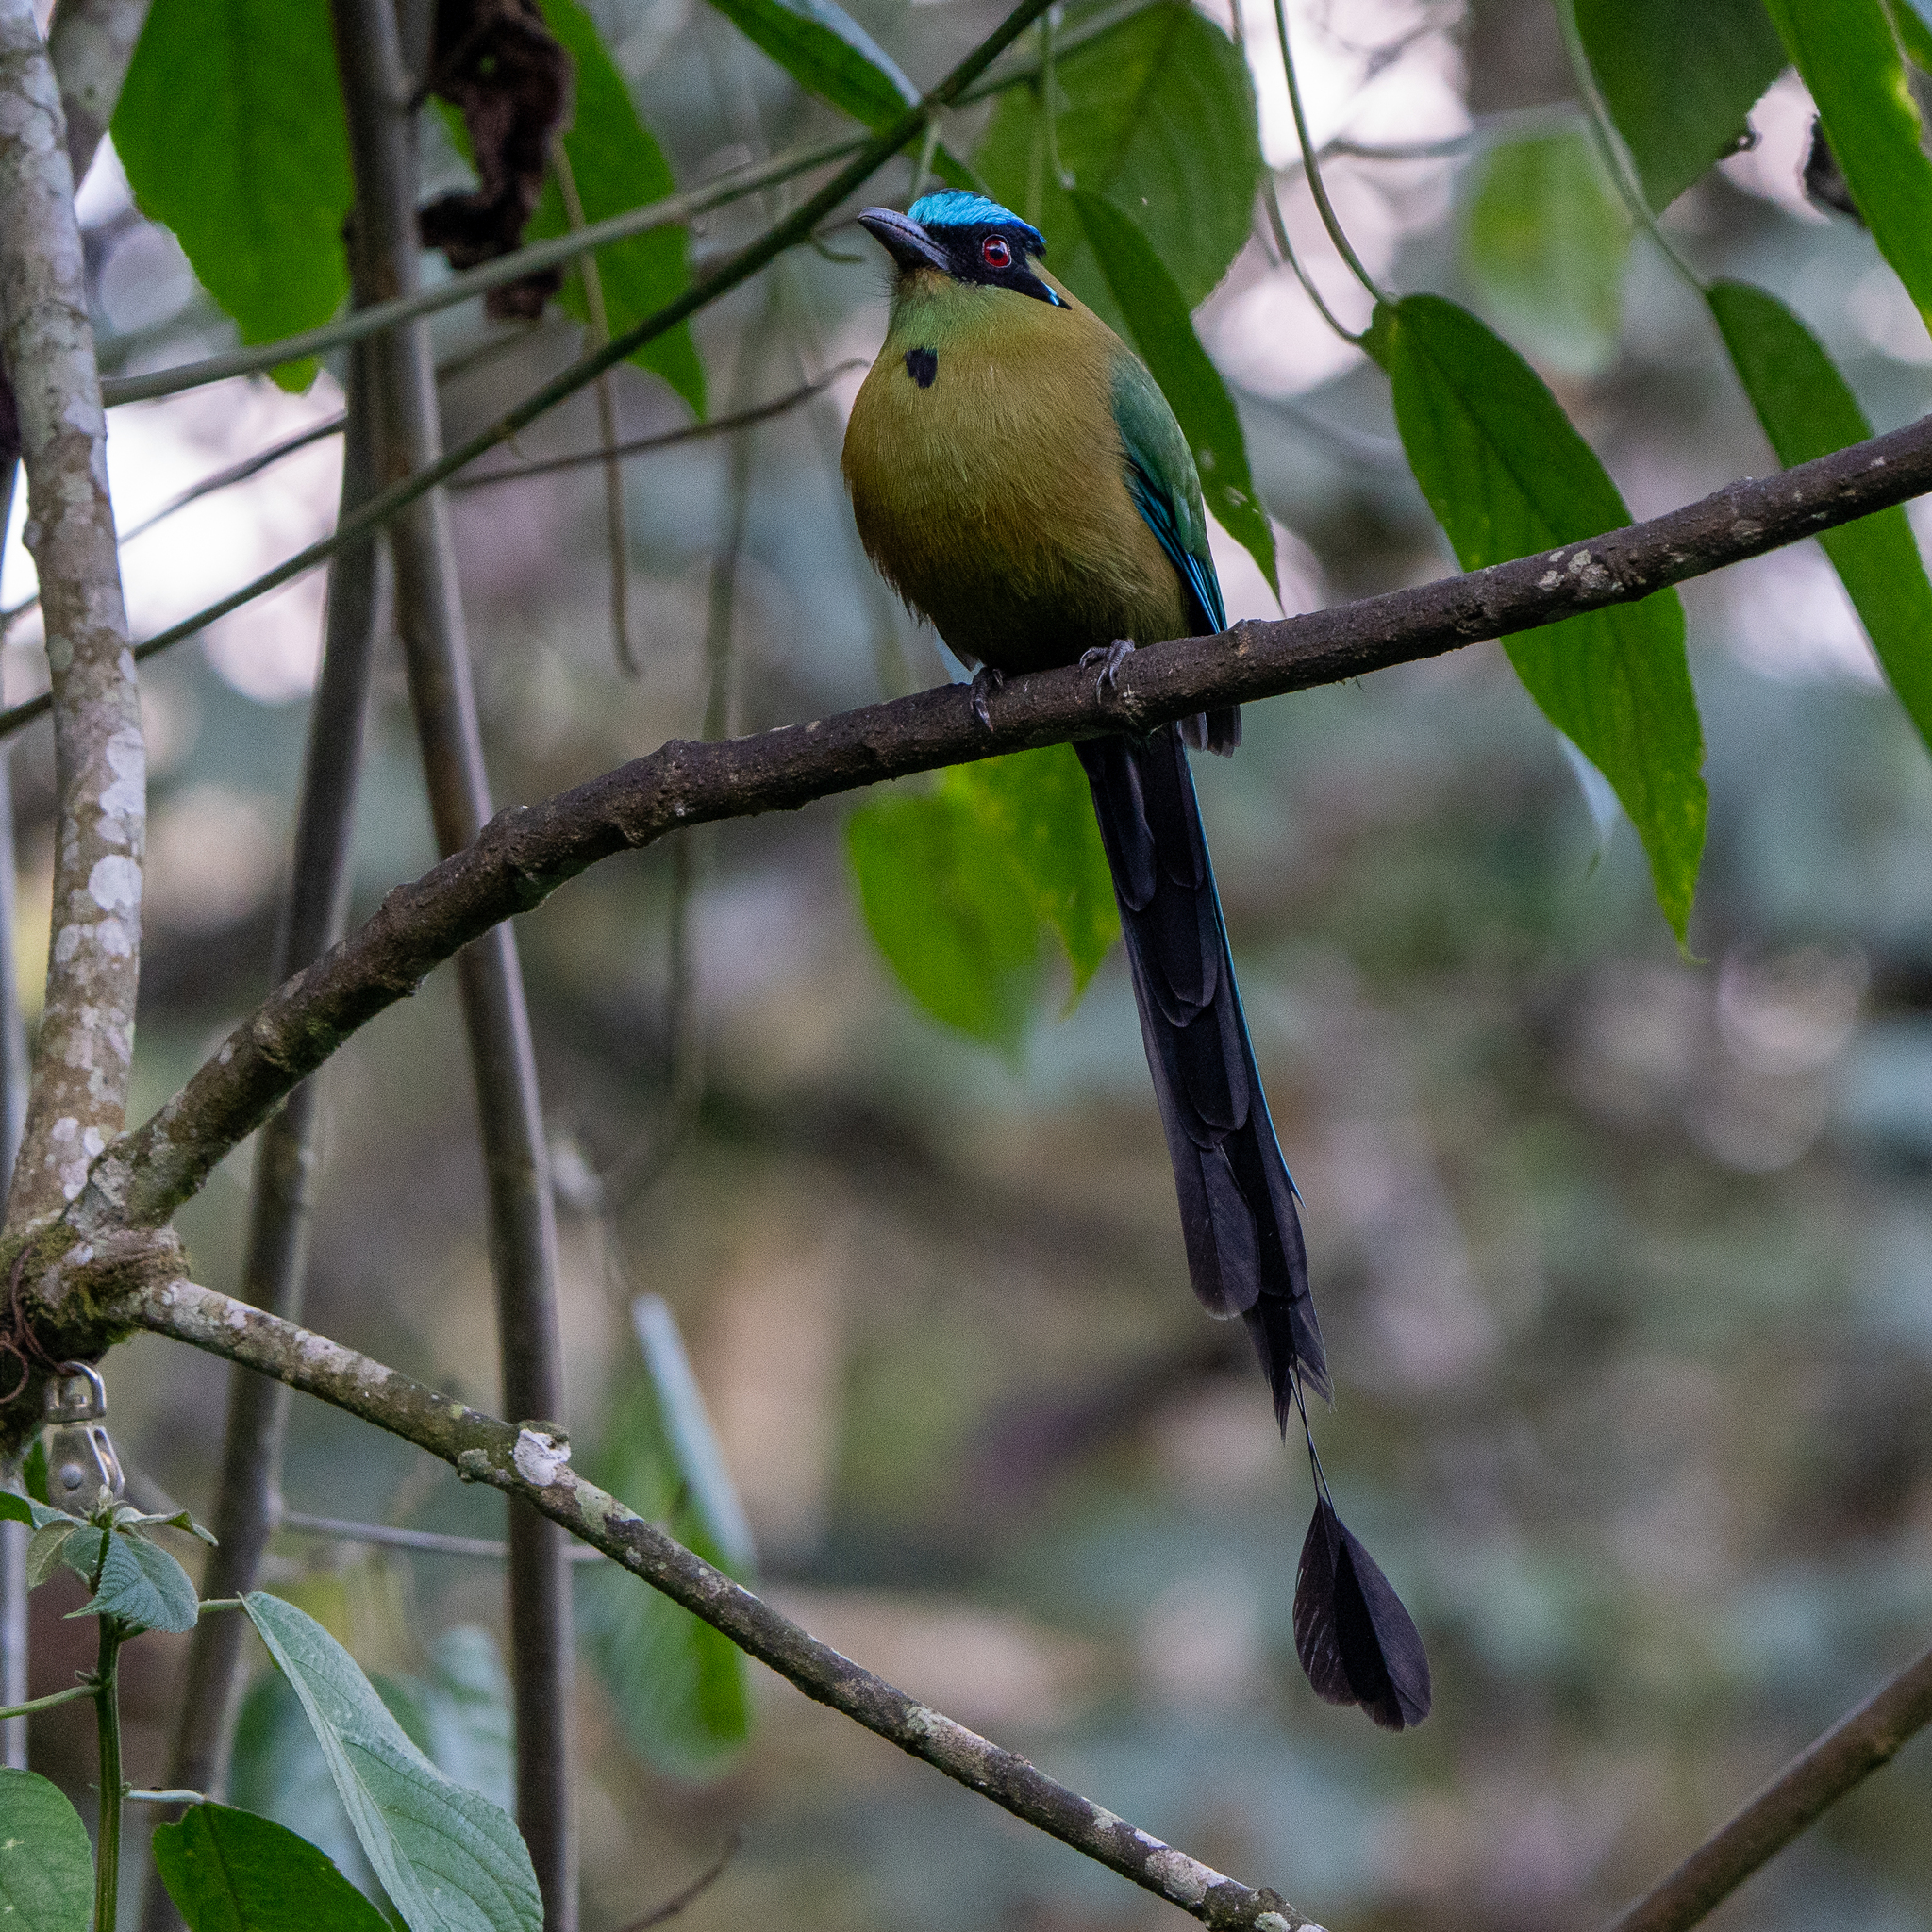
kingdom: Animalia
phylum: Chordata
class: Aves
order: Coraciiformes
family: Momotidae
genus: Momotus
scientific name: Momotus aequatorialis
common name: Andean motmot
